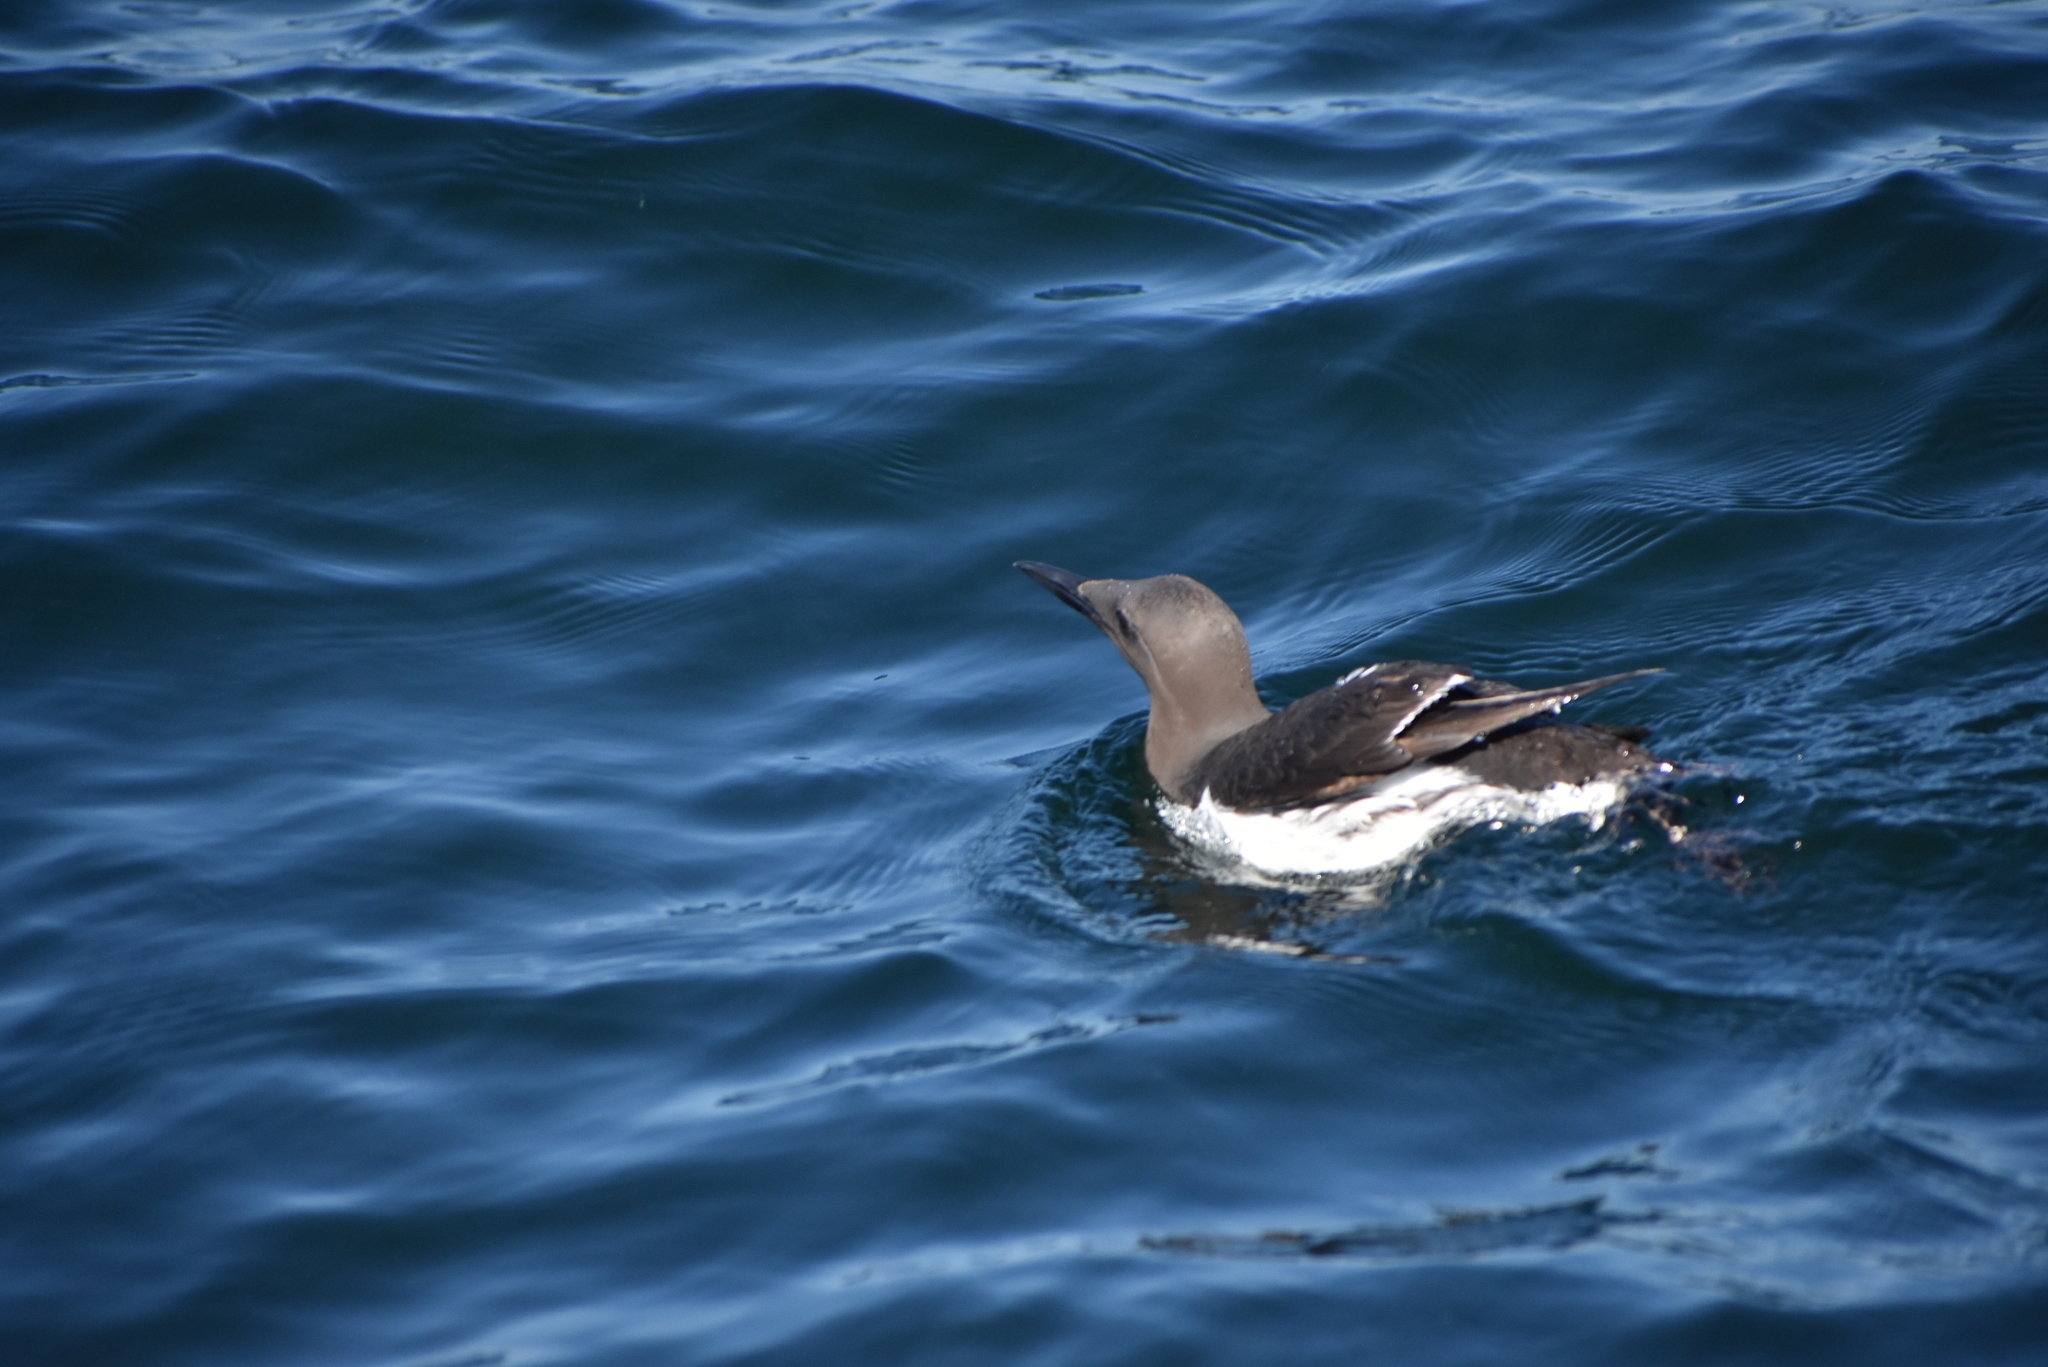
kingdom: Animalia
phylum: Chordata
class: Aves
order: Charadriiformes
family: Alcidae
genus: Uria
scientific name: Uria aalge
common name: Common murre
